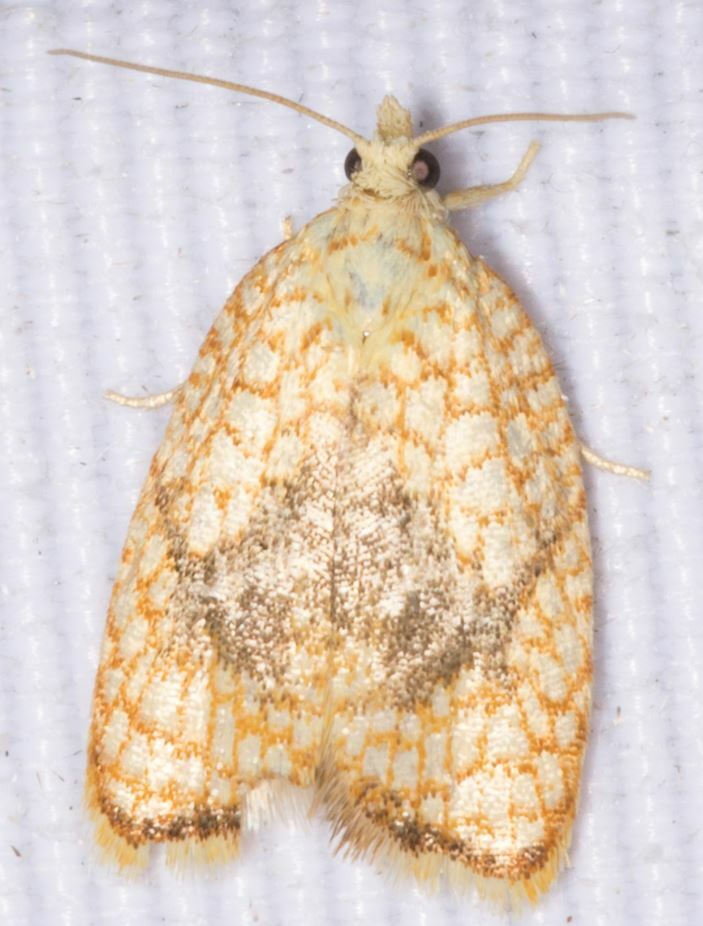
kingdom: Animalia
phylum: Arthropoda
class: Insecta
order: Lepidoptera
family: Tortricidae
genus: Acleris
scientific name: Acleris forsskaleana
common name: Maple button
